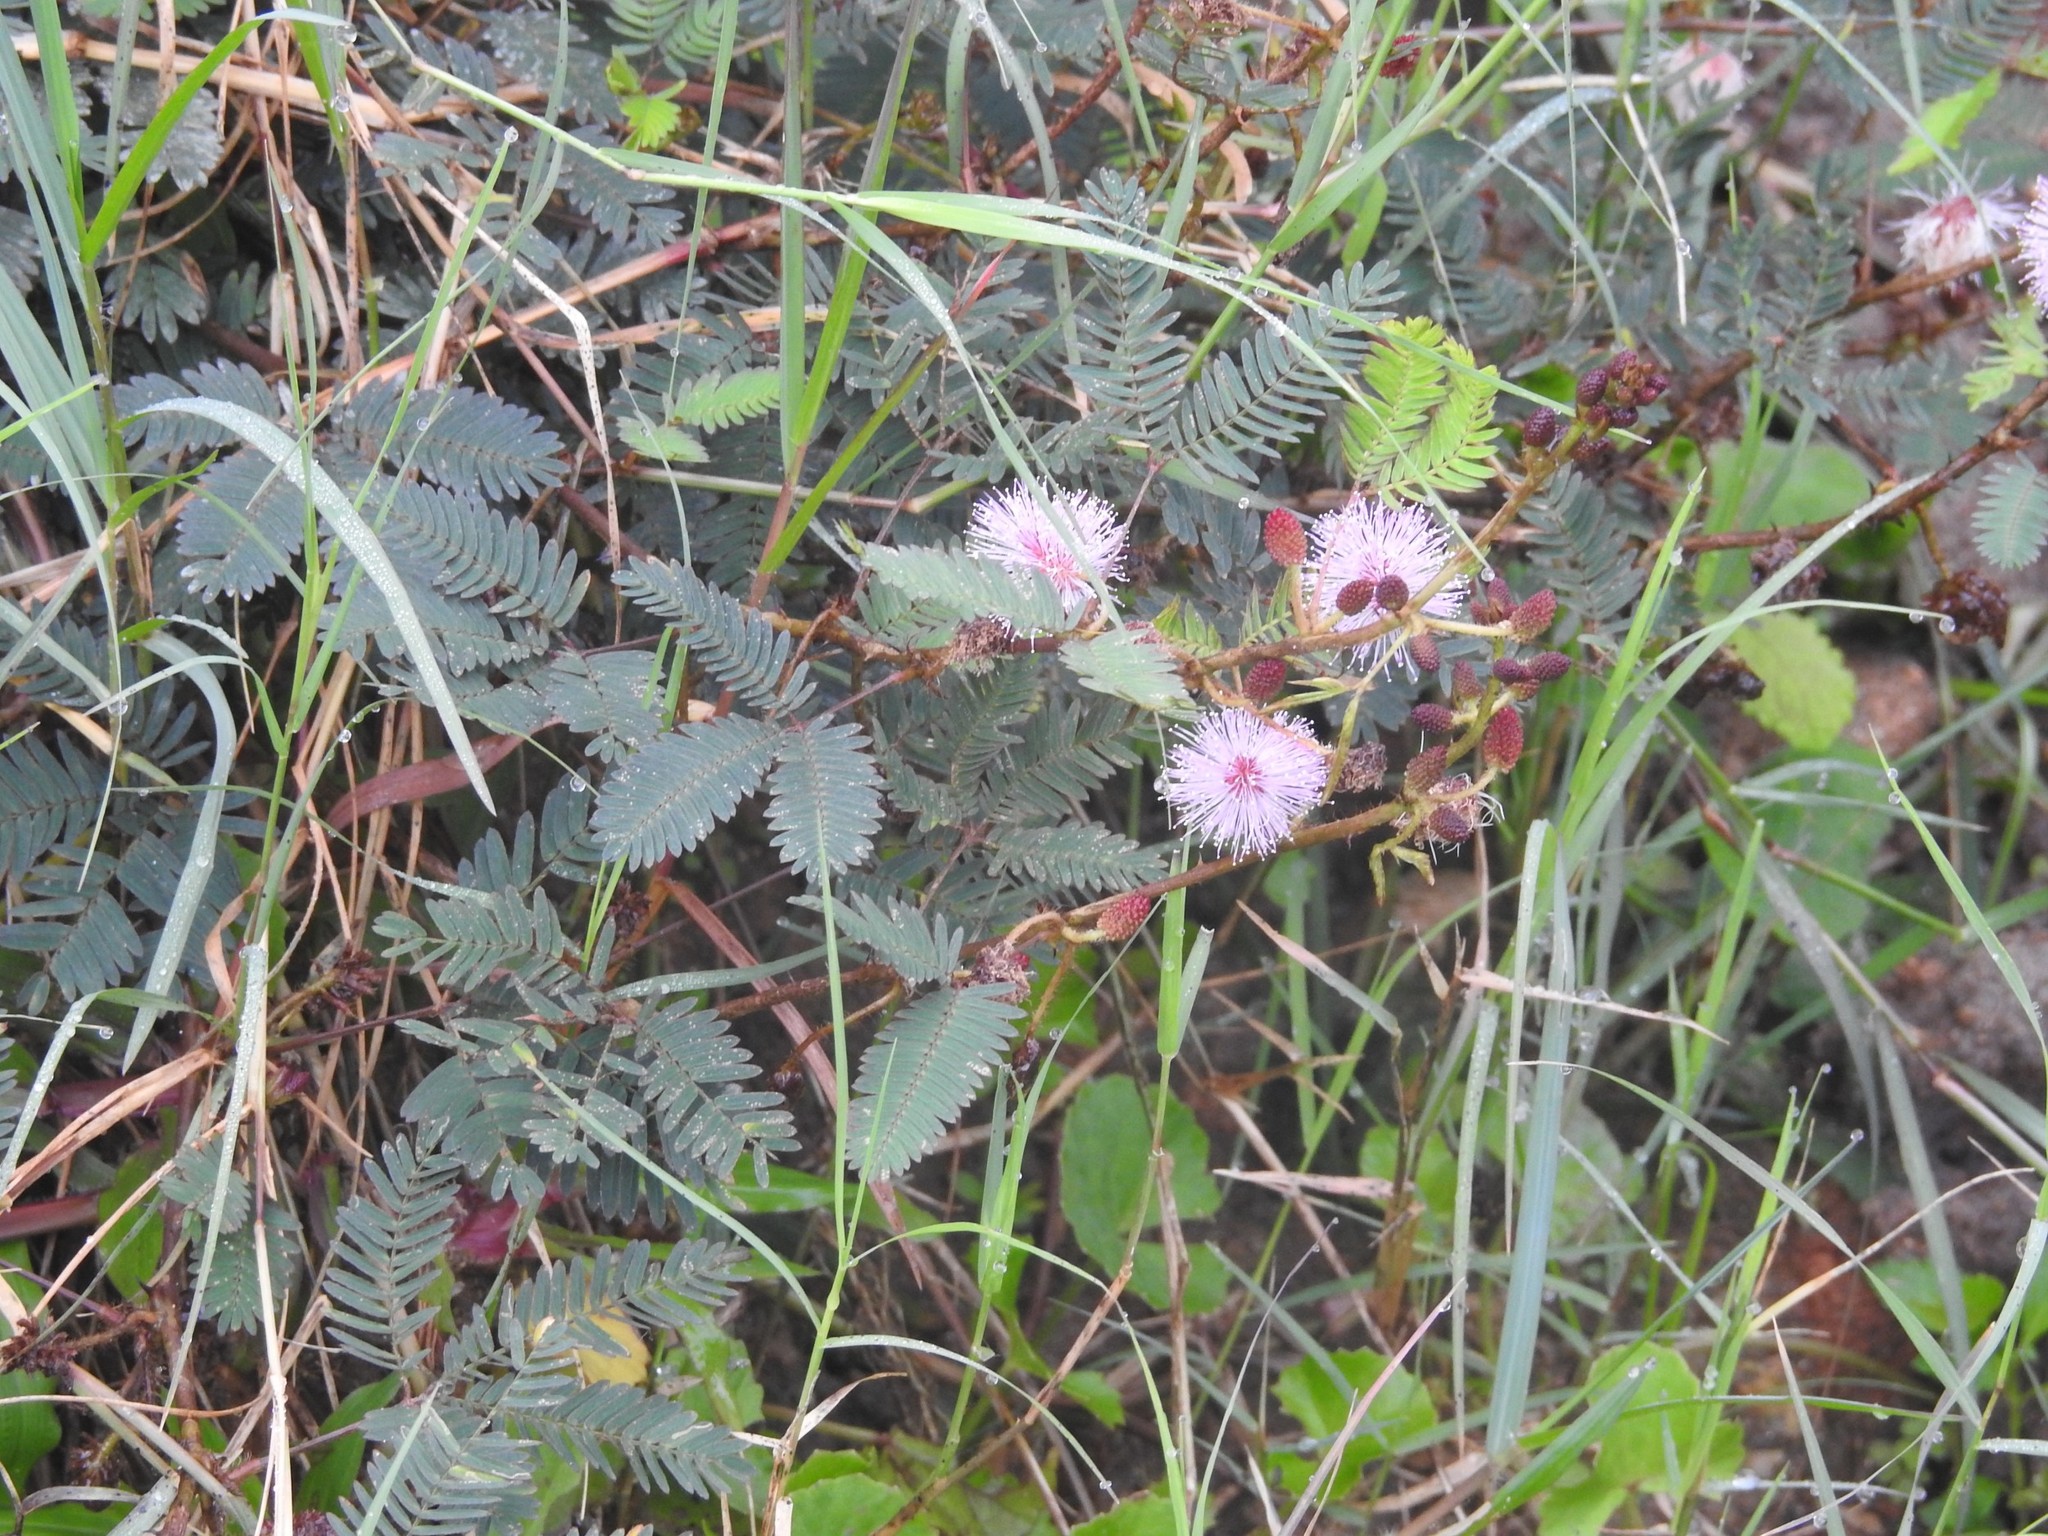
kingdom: Plantae
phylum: Tracheophyta
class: Magnoliopsida
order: Fabales
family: Fabaceae
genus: Mimosa
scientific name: Mimosa pudica
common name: Sensitive plant
